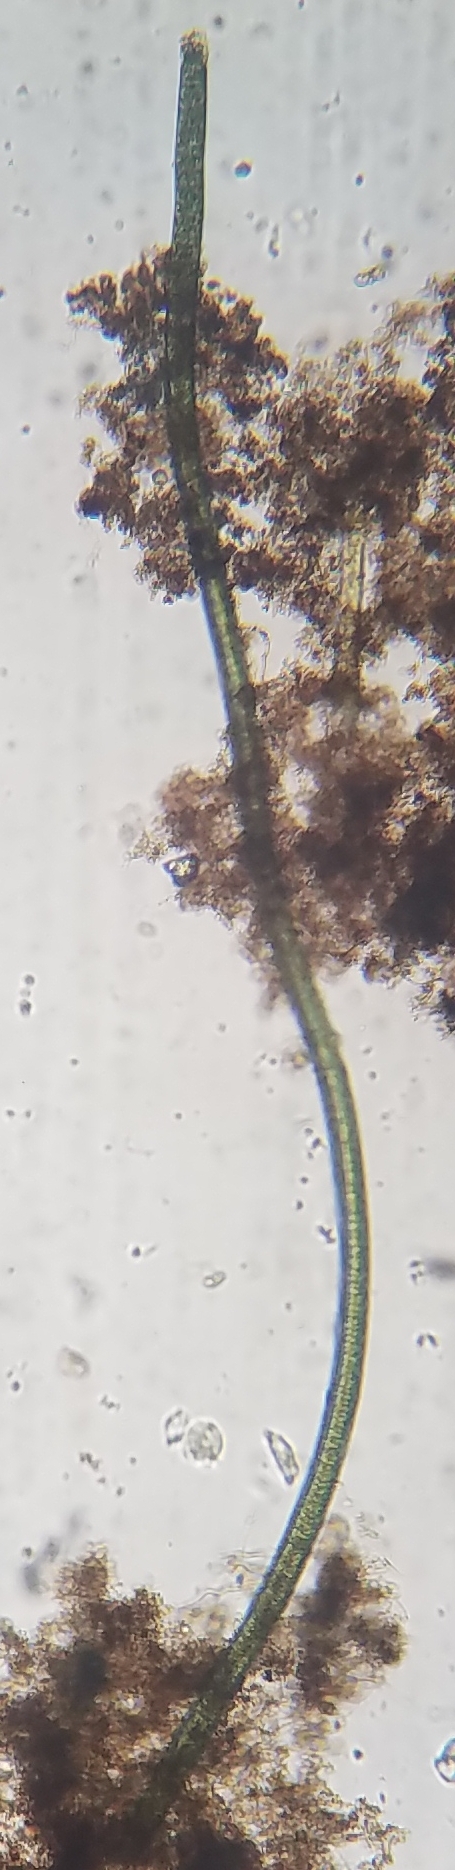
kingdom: Bacteria
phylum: Cyanobacteria
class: Cyanobacteriia
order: Cyanobacteriales
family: Oscillatoriaceae
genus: Oscillatoria
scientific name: Oscillatoria
